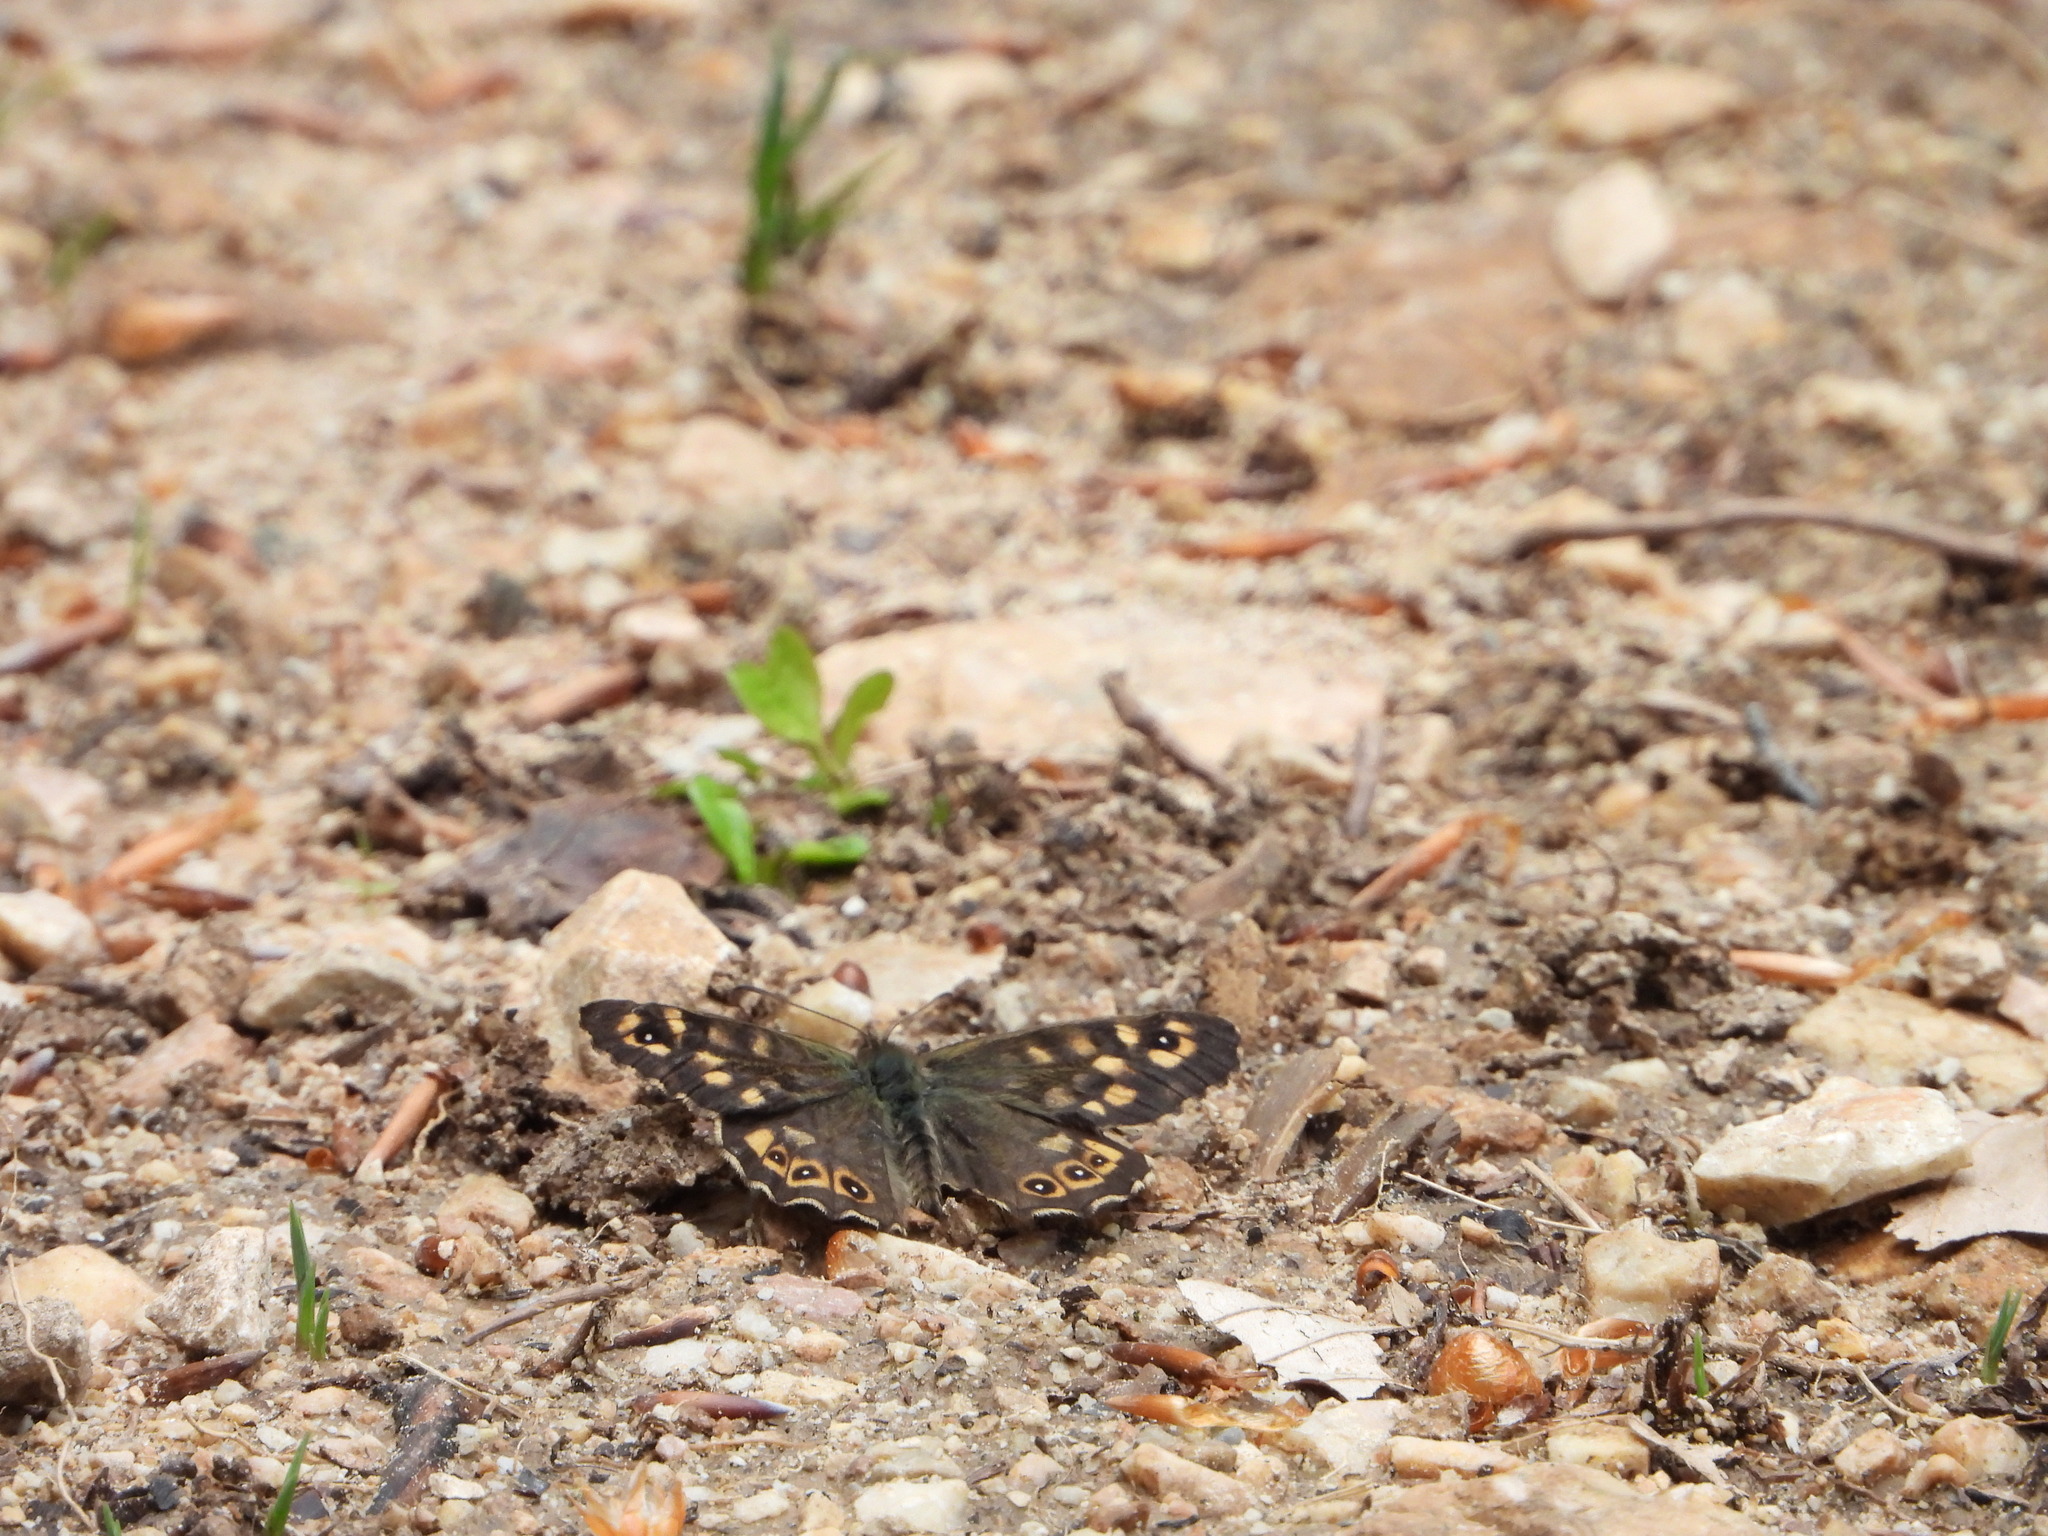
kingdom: Animalia
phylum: Arthropoda
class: Insecta
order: Lepidoptera
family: Nymphalidae
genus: Pararge
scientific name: Pararge aegeria
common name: Speckled wood
